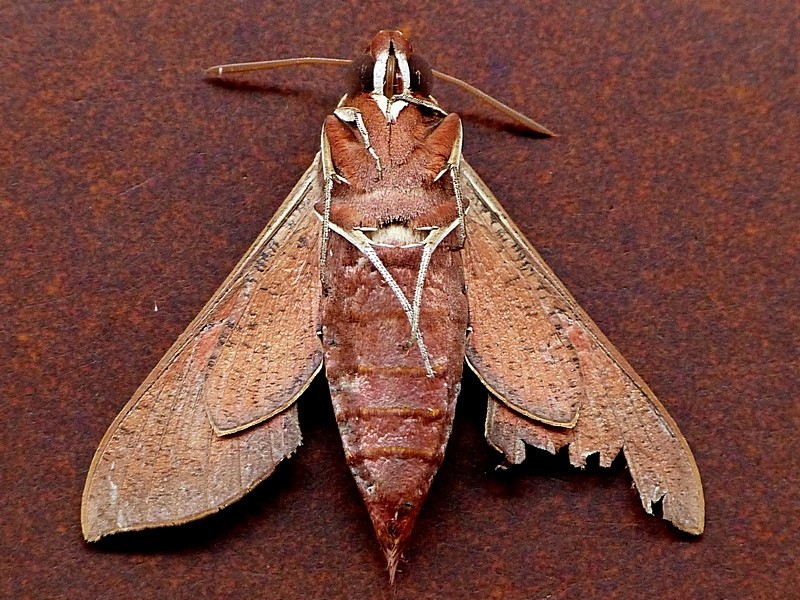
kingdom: Animalia
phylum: Arthropoda
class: Insecta
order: Lepidoptera
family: Sphingidae
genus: Hippotion
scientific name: Hippotion scrofa
